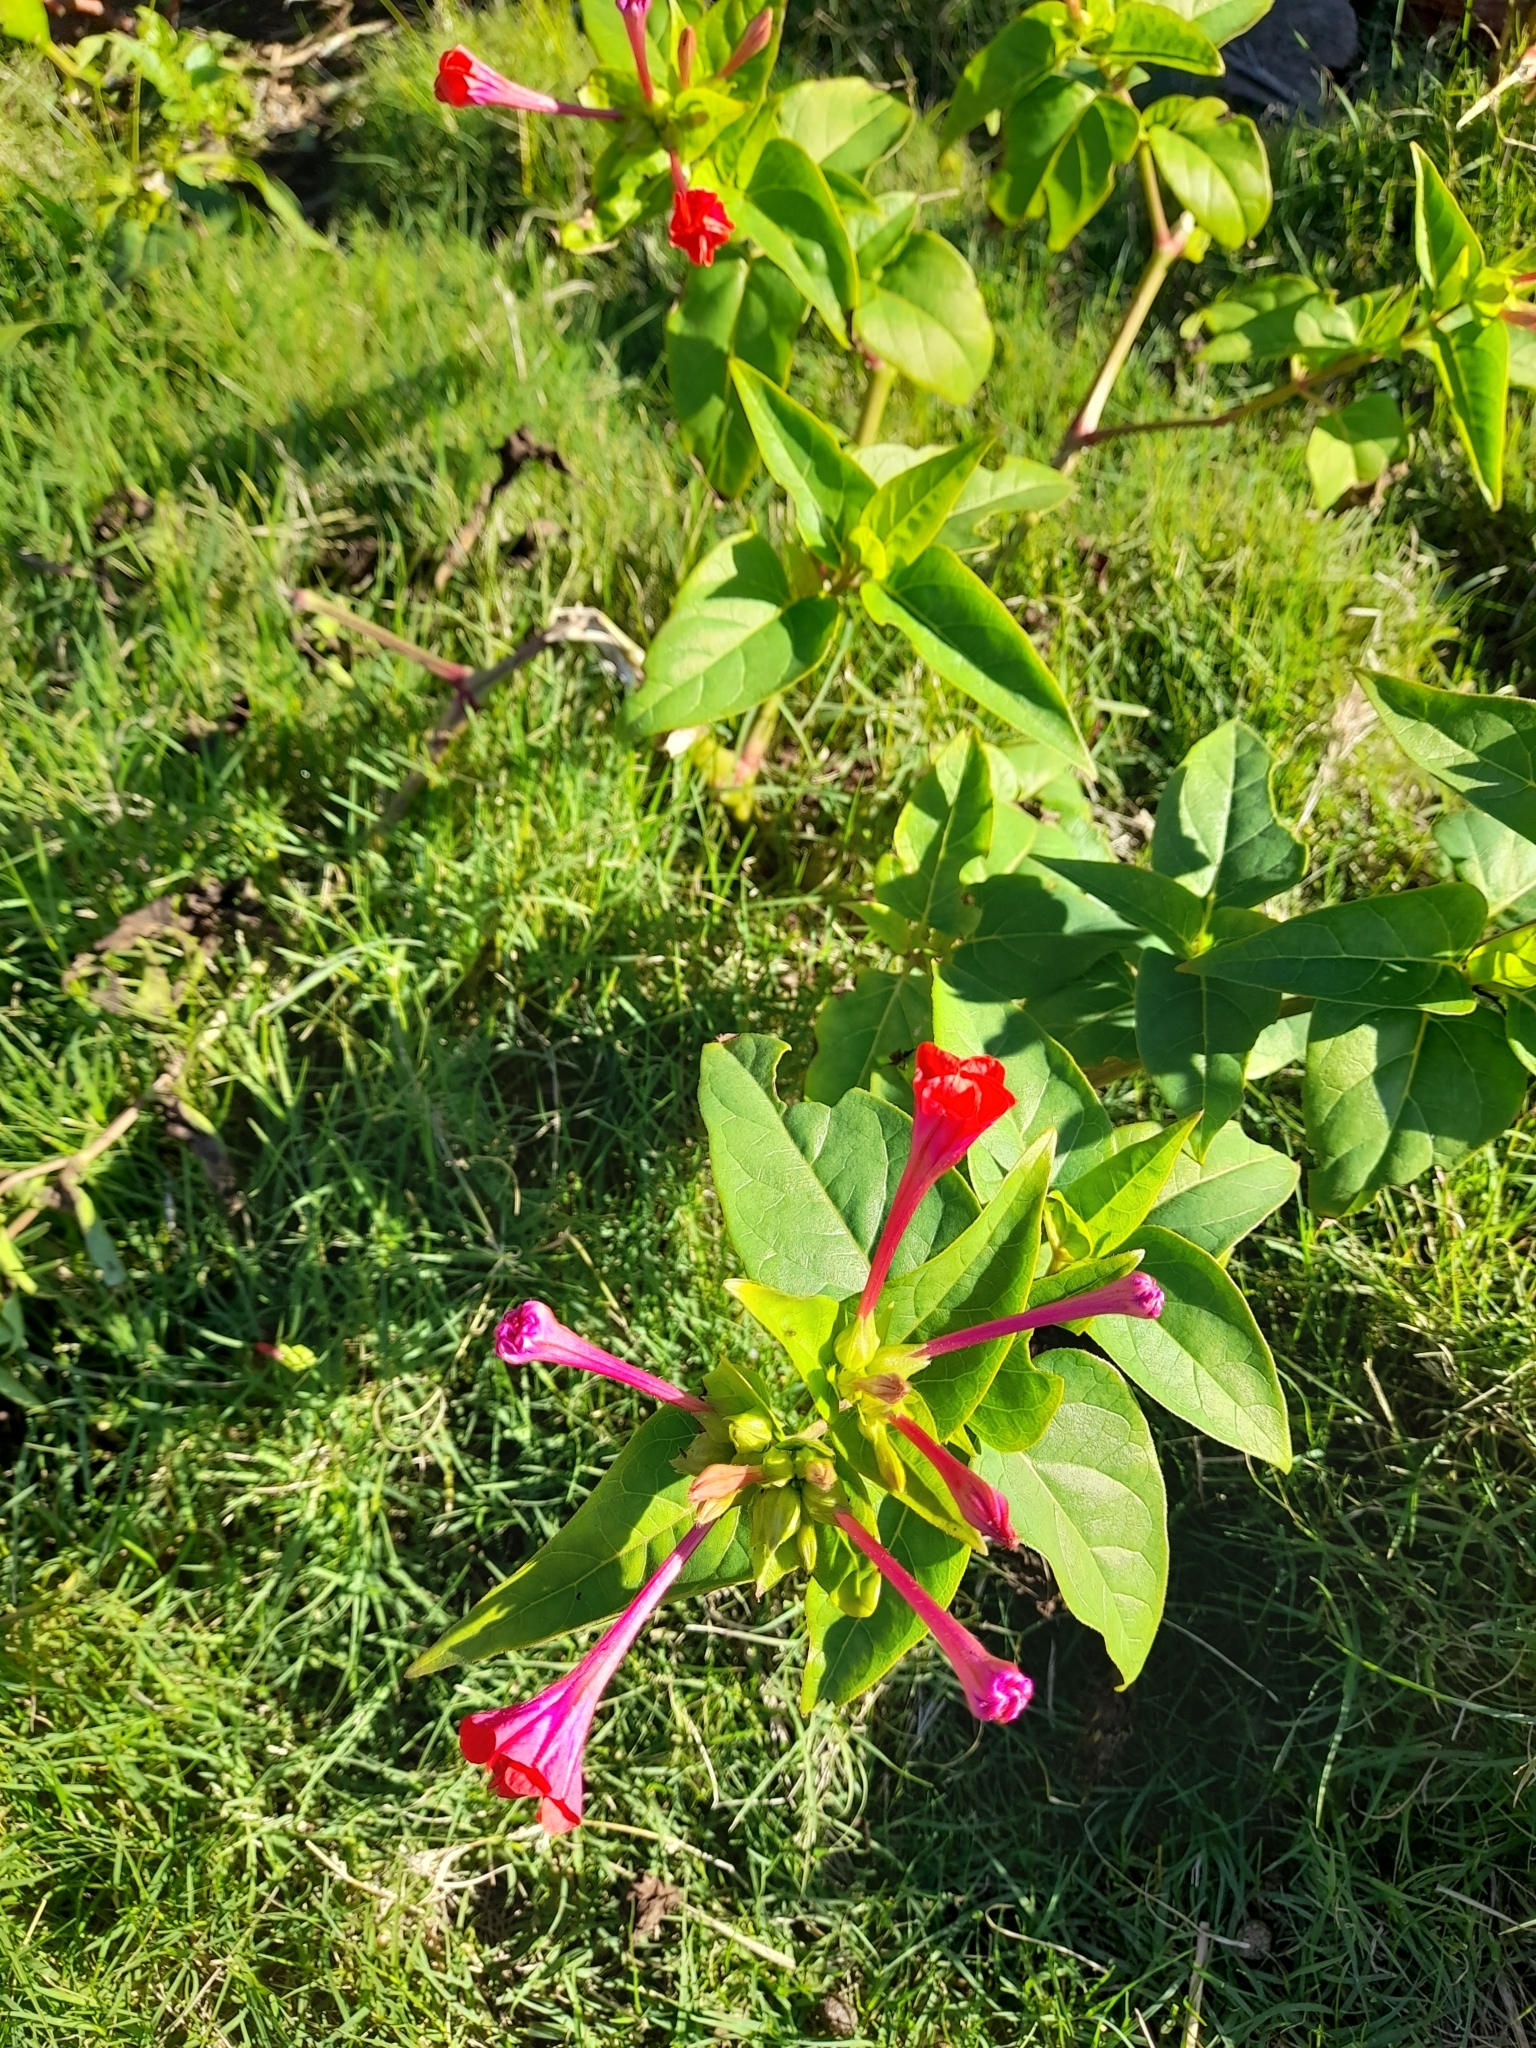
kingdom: Plantae
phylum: Tracheophyta
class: Magnoliopsida
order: Caryophyllales
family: Nyctaginaceae
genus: Mirabilis
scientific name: Mirabilis jalapa
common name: Marvel-of-peru
